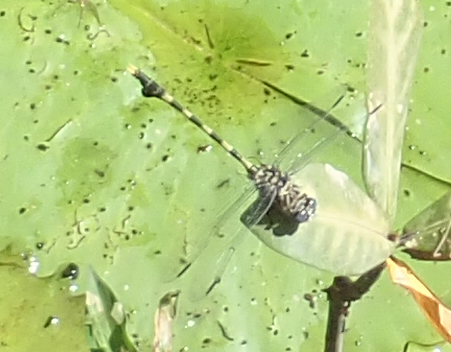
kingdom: Animalia
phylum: Arthropoda
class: Insecta
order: Odonata
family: Gomphidae
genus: Ictinogomphus
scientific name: Ictinogomphus ferox
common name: Common tiger
